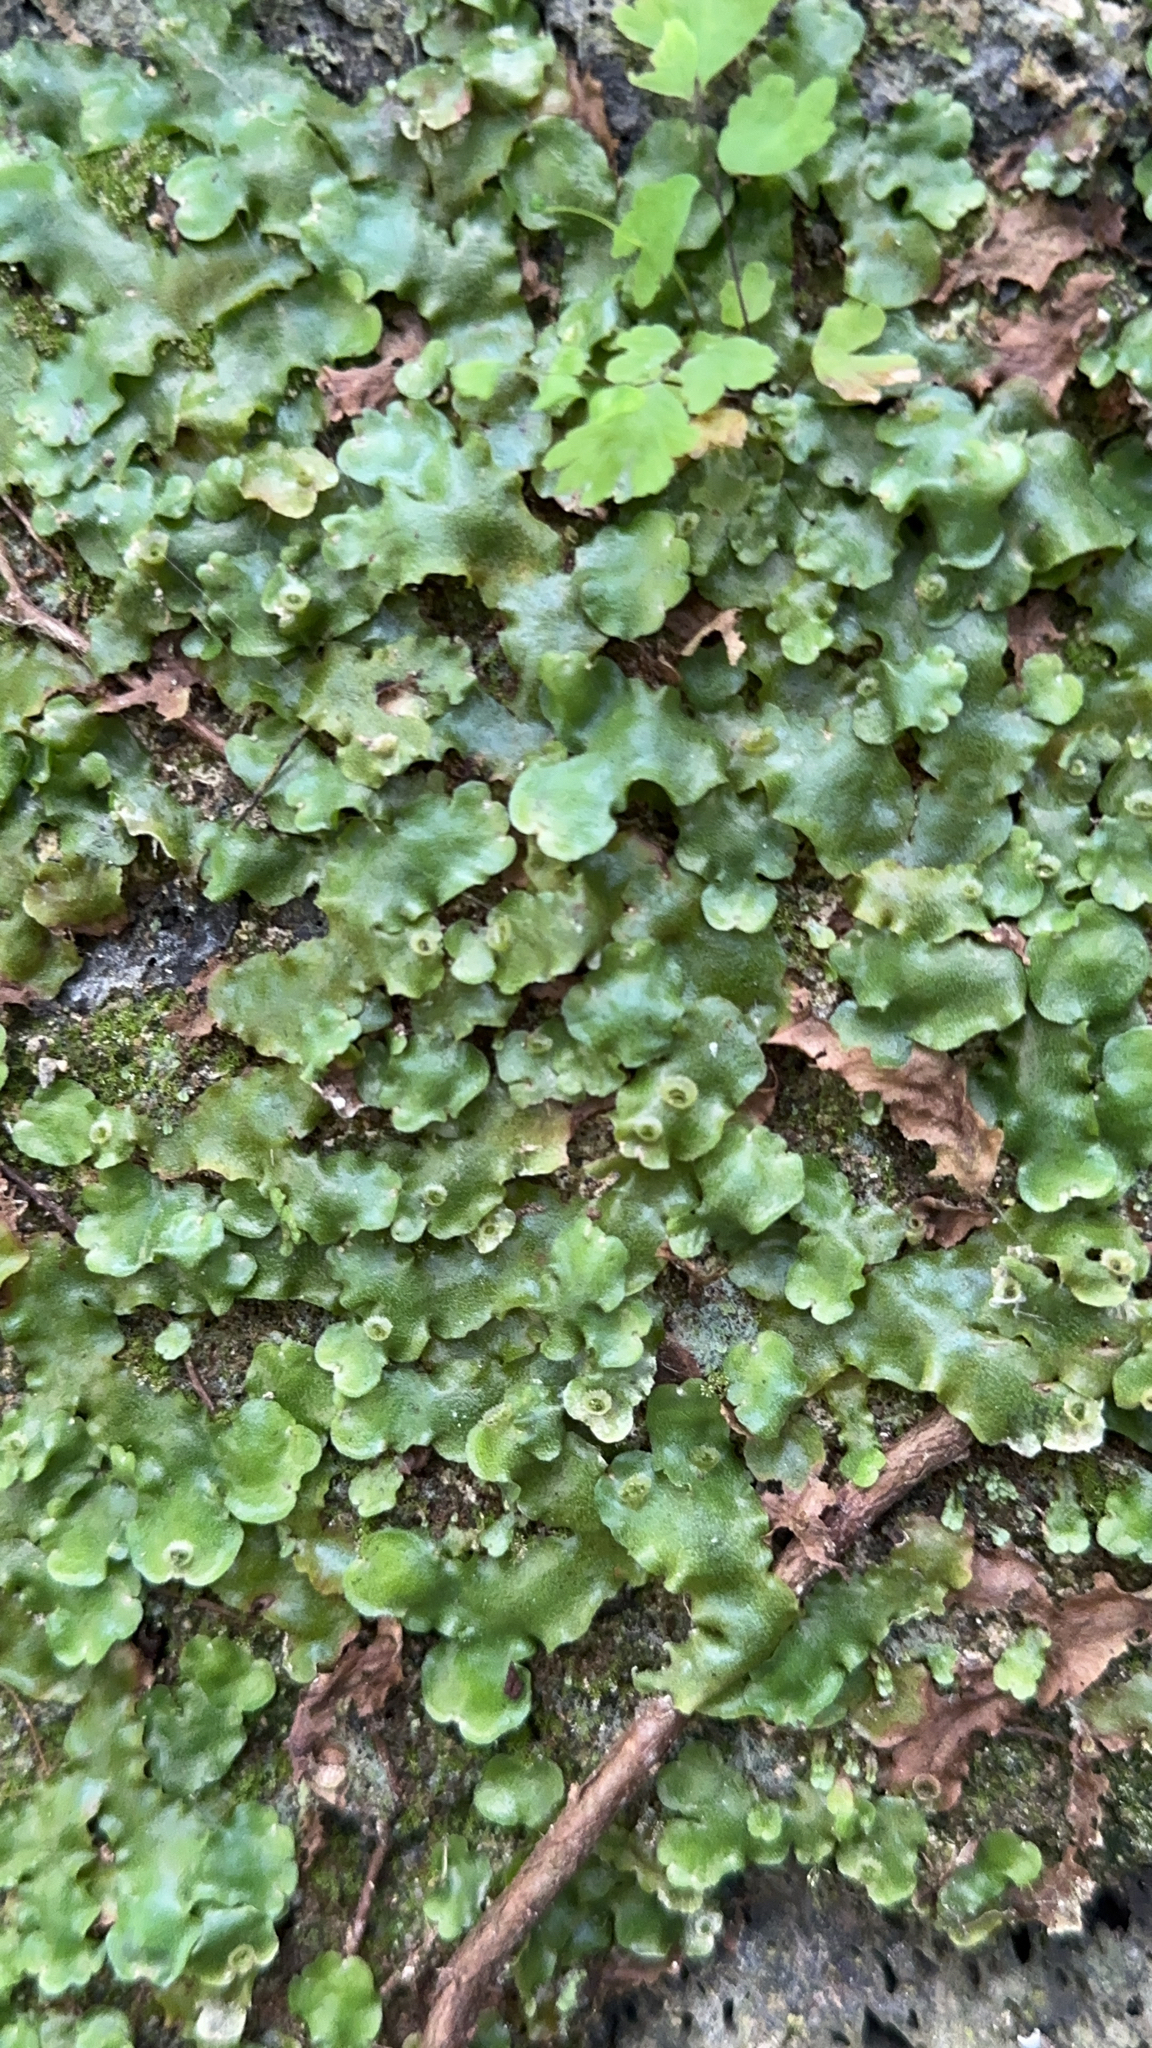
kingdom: Plantae
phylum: Marchantiophyta
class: Marchantiopsida
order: Marchantiales
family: Marchantiaceae
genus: Marchantia
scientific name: Marchantia paleacea
